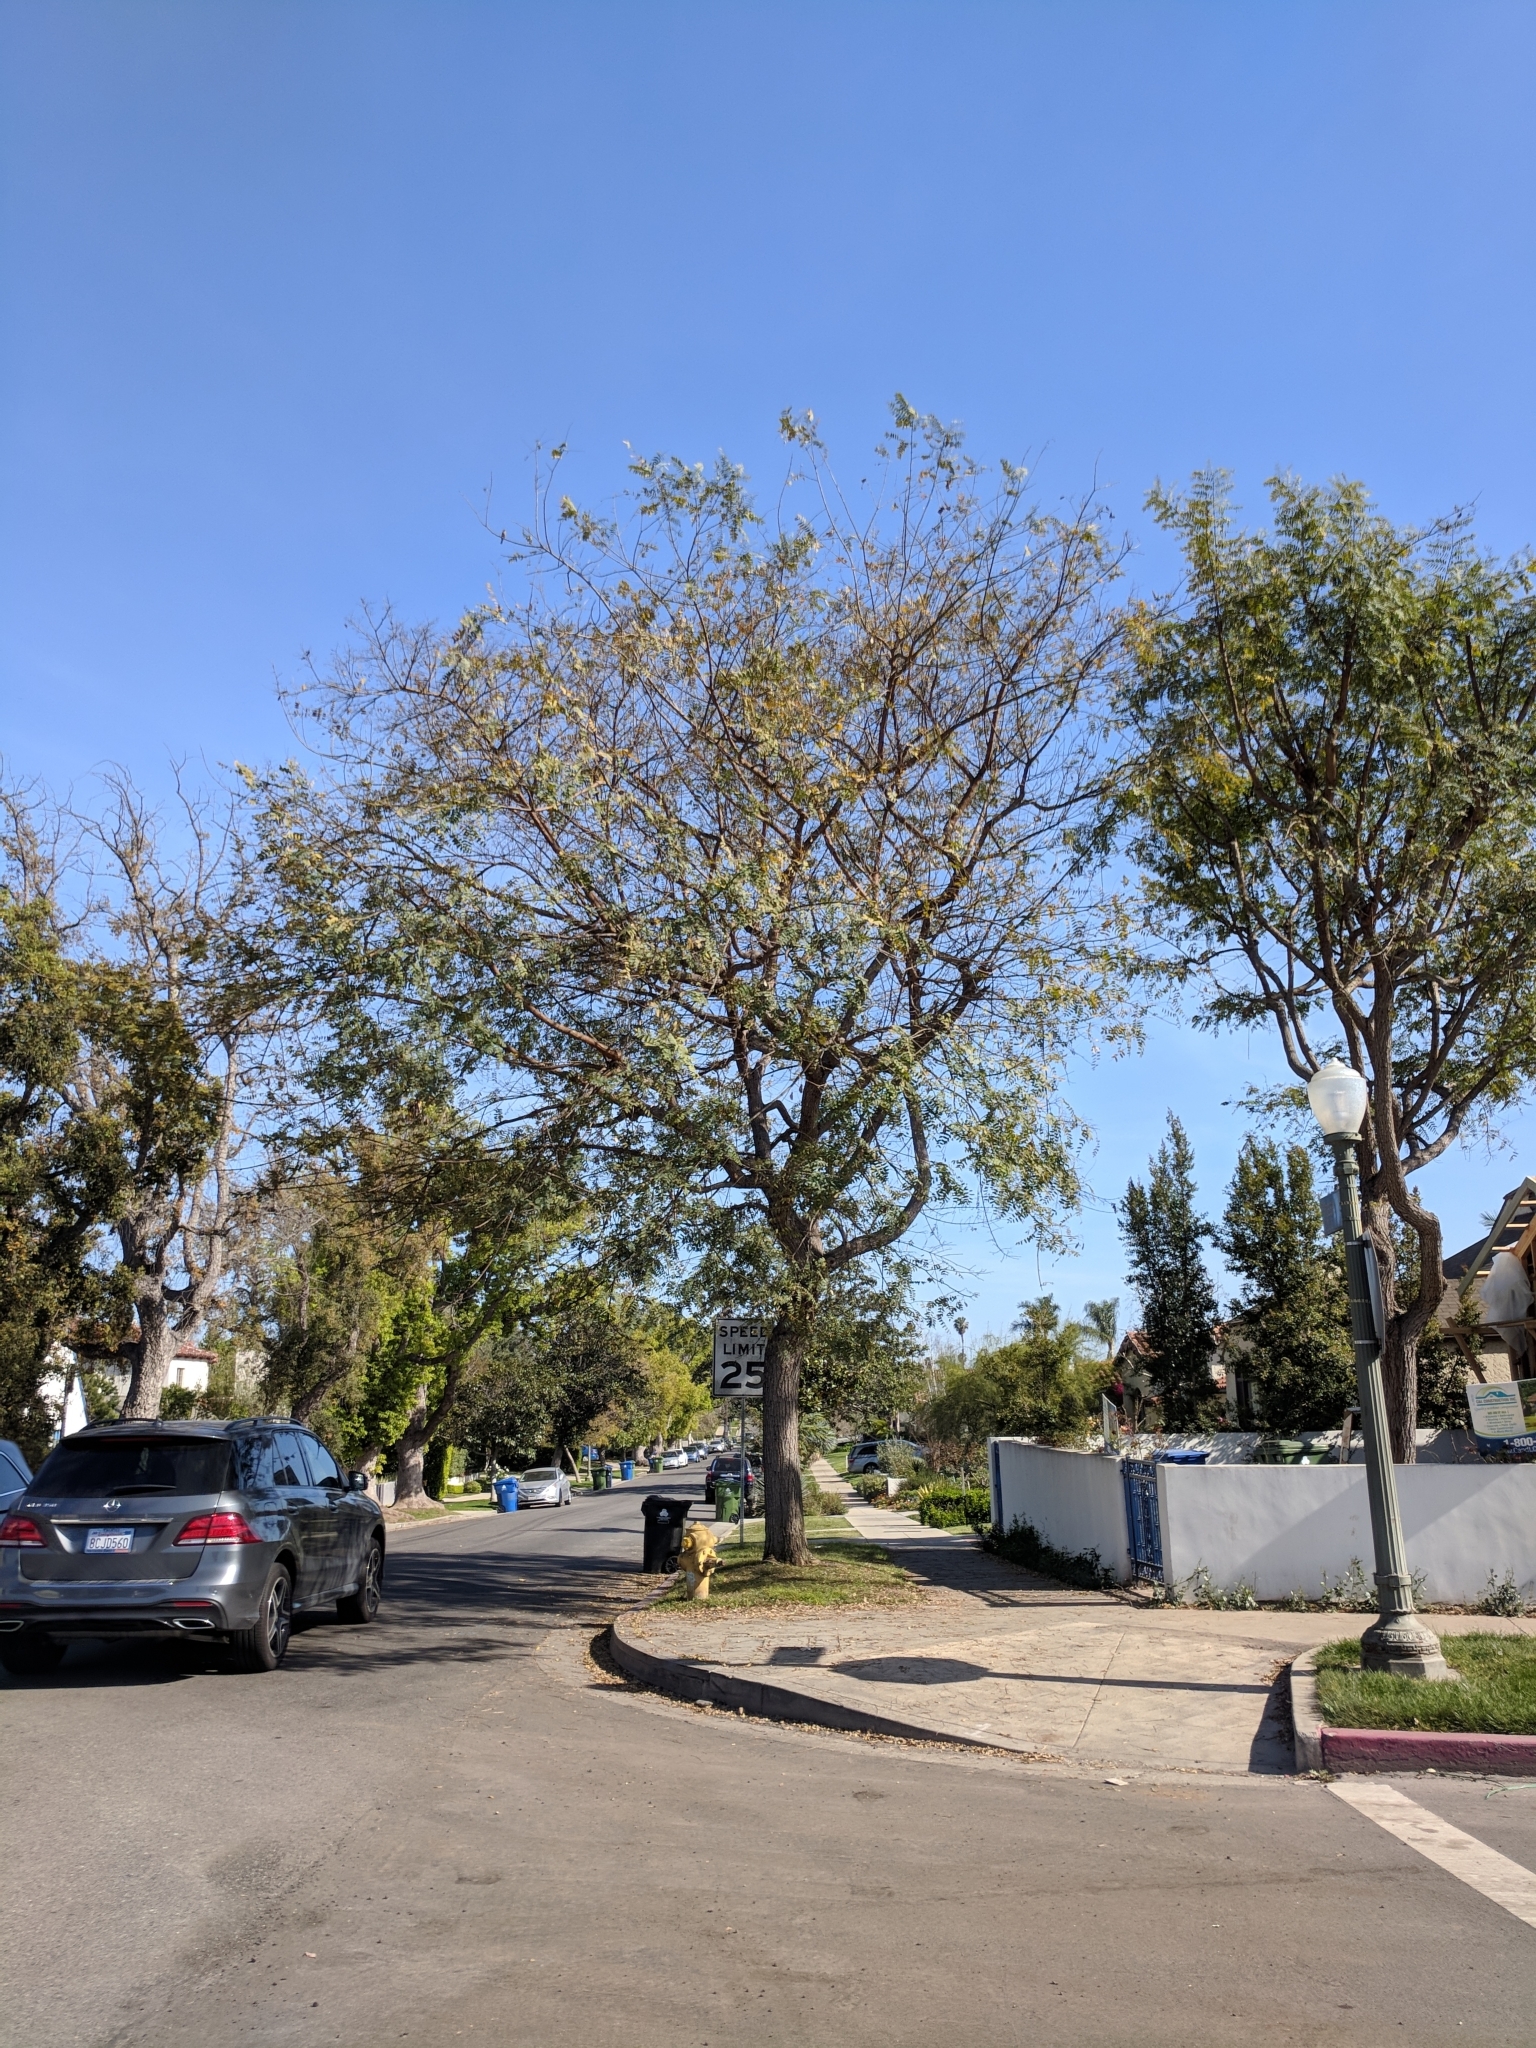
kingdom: Animalia
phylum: Arthropoda
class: Insecta
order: Hemiptera
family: Psyllidae
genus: Platycorypha
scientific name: Platycorypha nigrivirga
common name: Tipu psyllid
